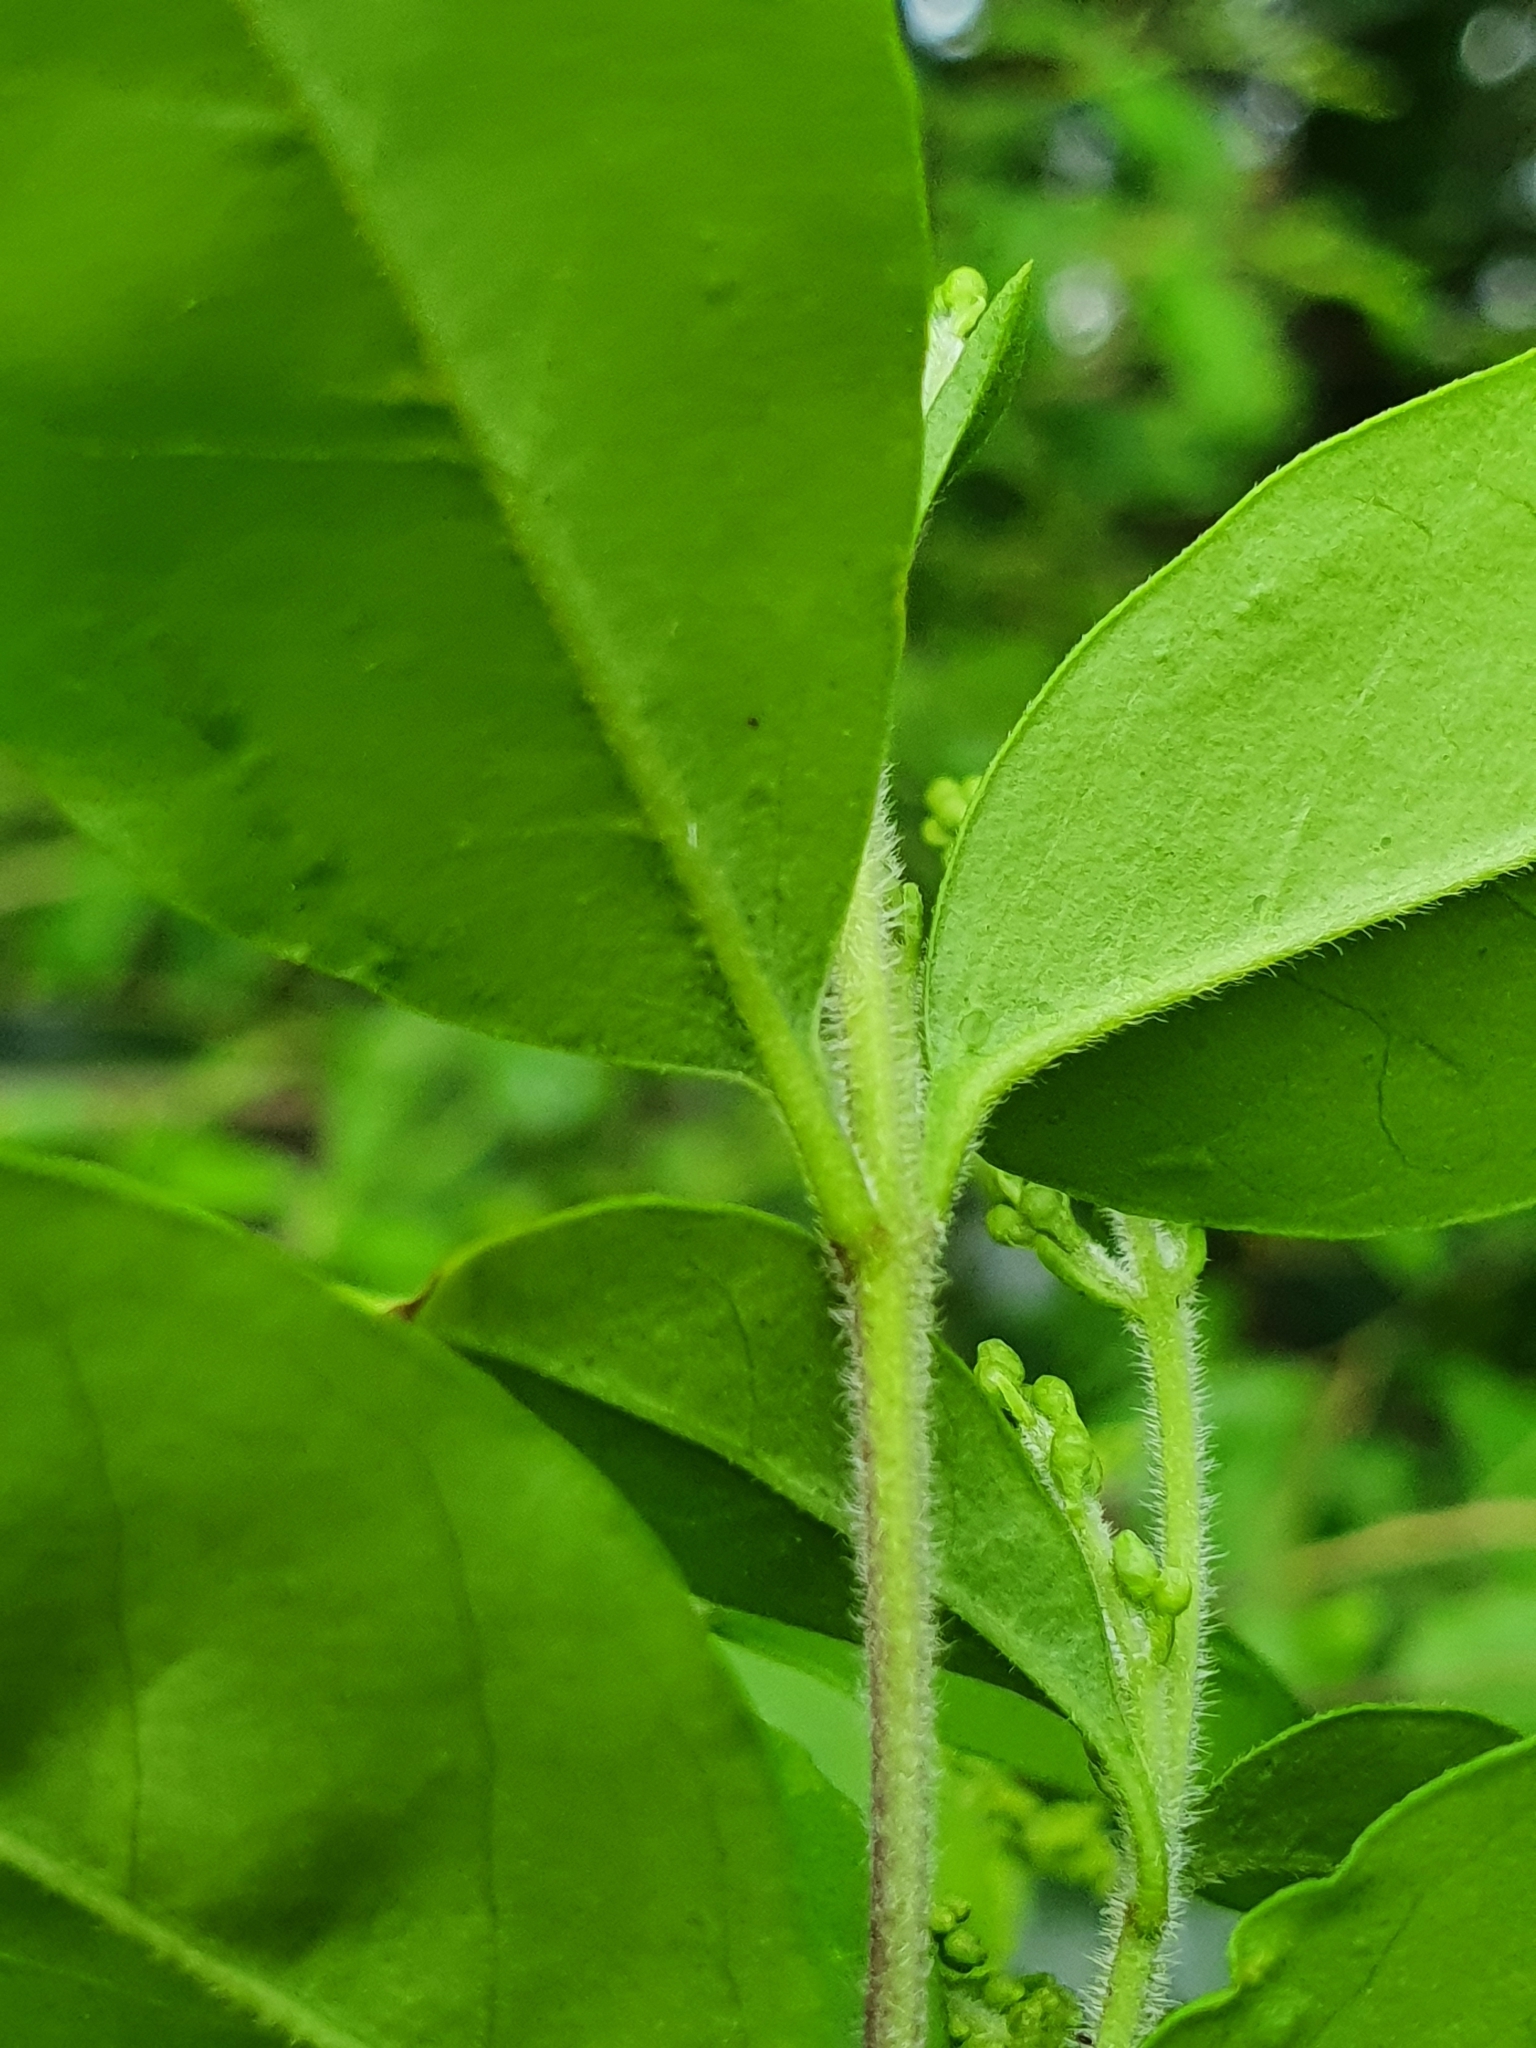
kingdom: Plantae
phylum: Tracheophyta
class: Magnoliopsida
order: Lamiales
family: Oleaceae
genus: Ligustrum
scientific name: Ligustrum sinense
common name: Chinese privet
